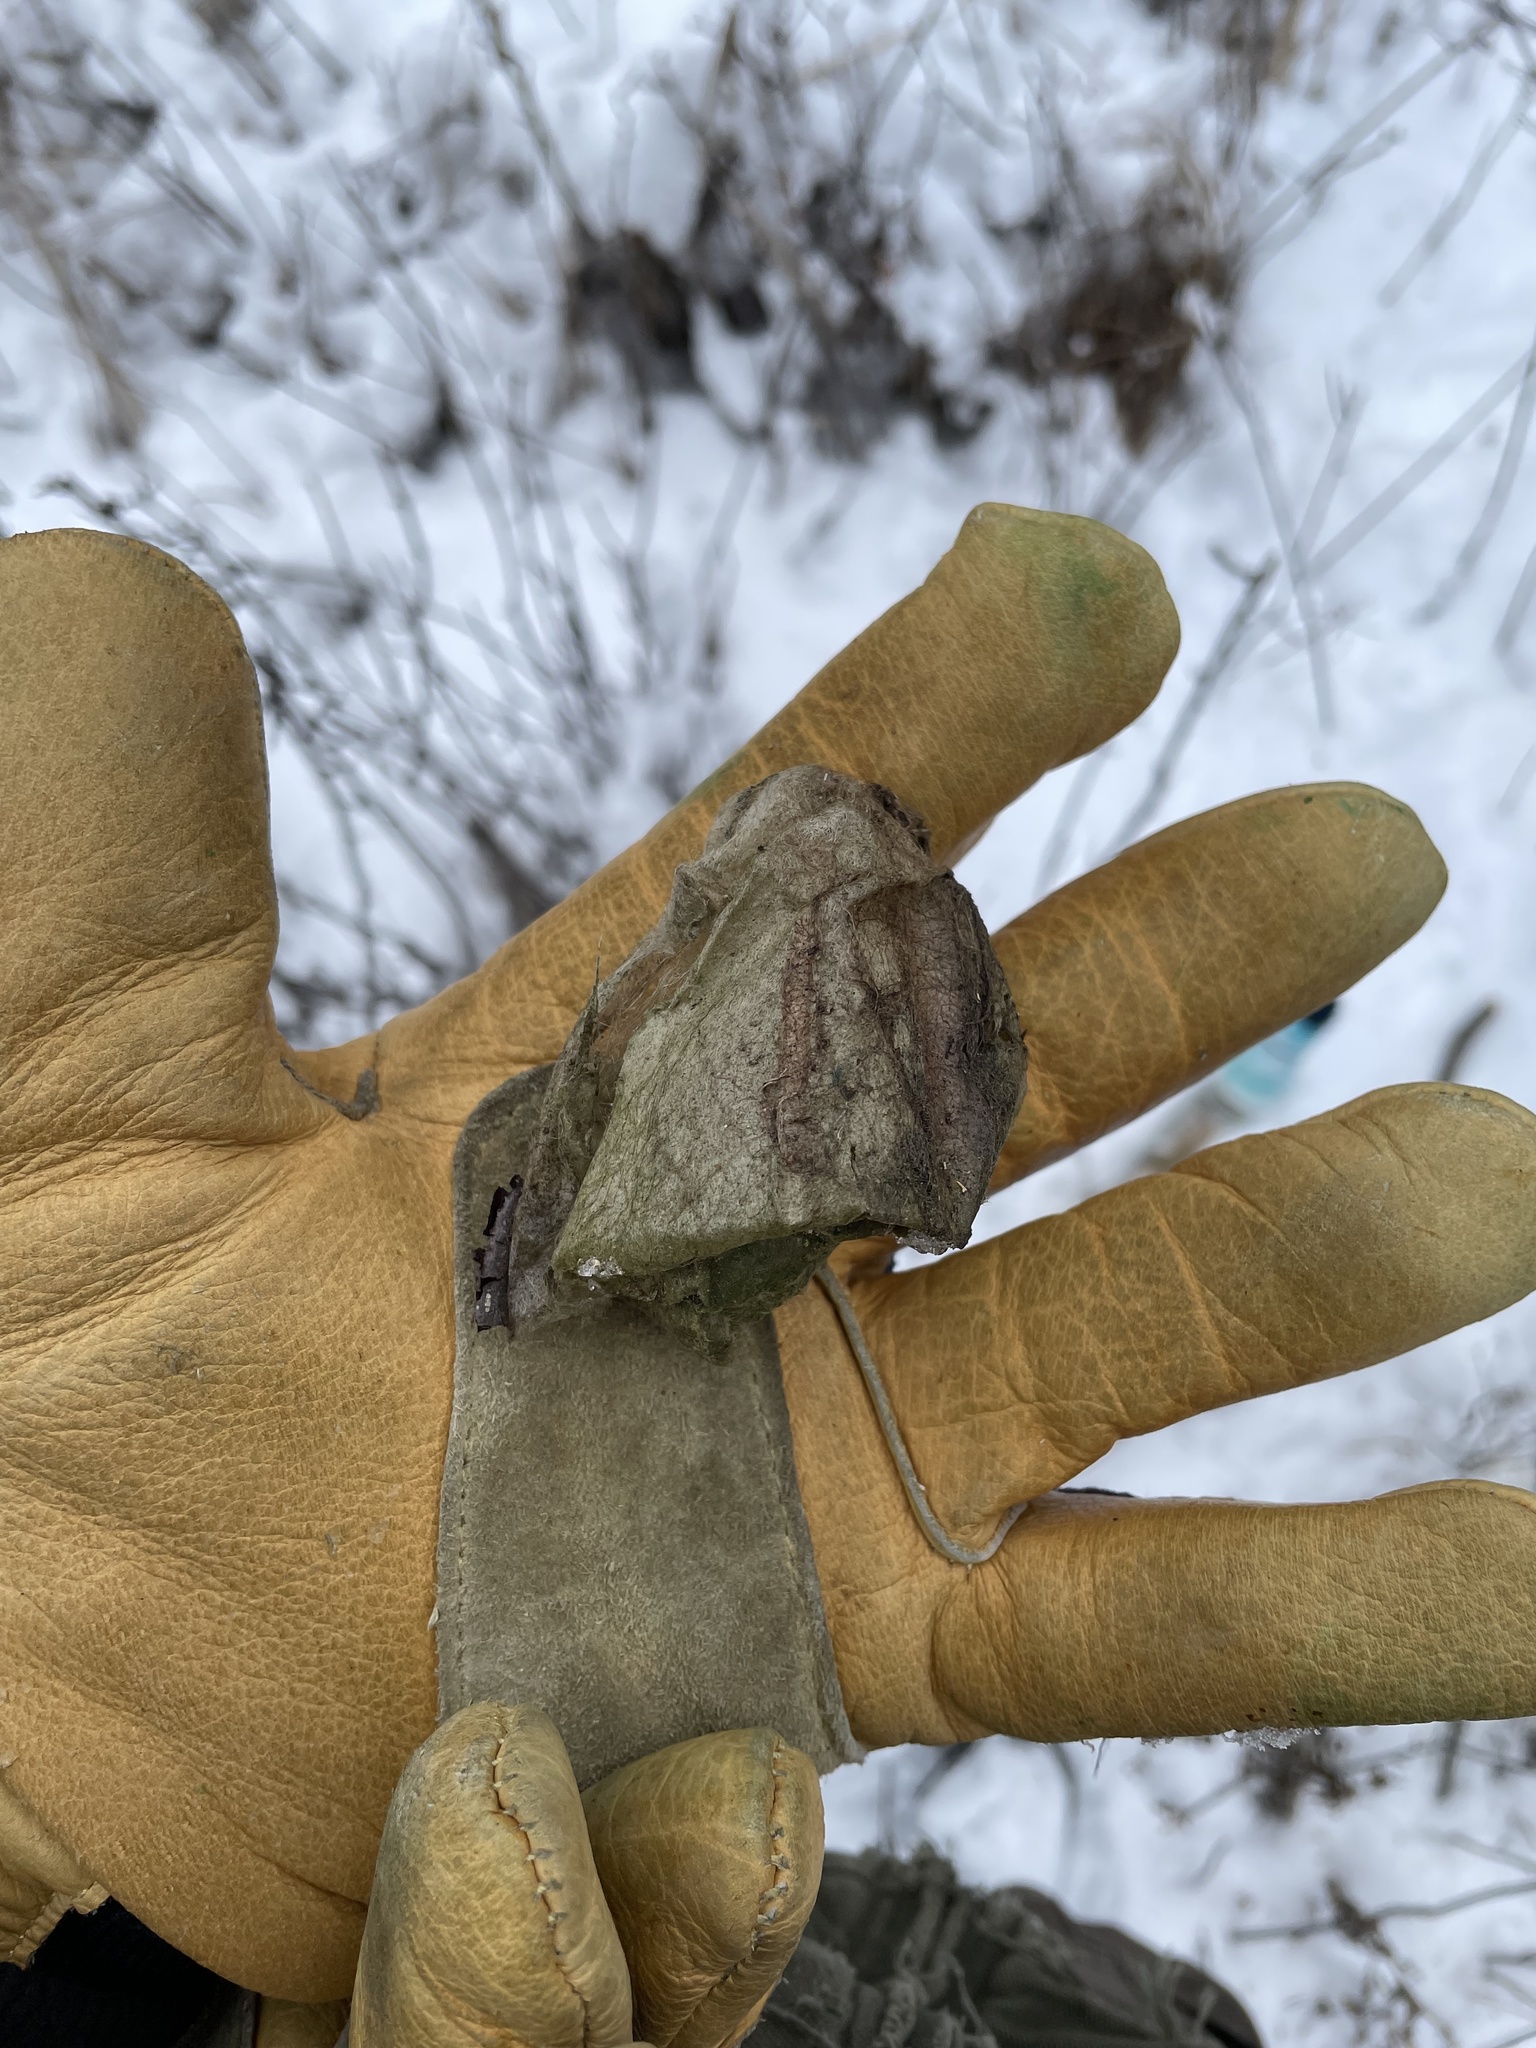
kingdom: Animalia
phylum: Arthropoda
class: Insecta
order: Lepidoptera
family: Saturniidae
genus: Hyalophora
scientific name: Hyalophora cecropia
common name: Cecropia silkmoth
